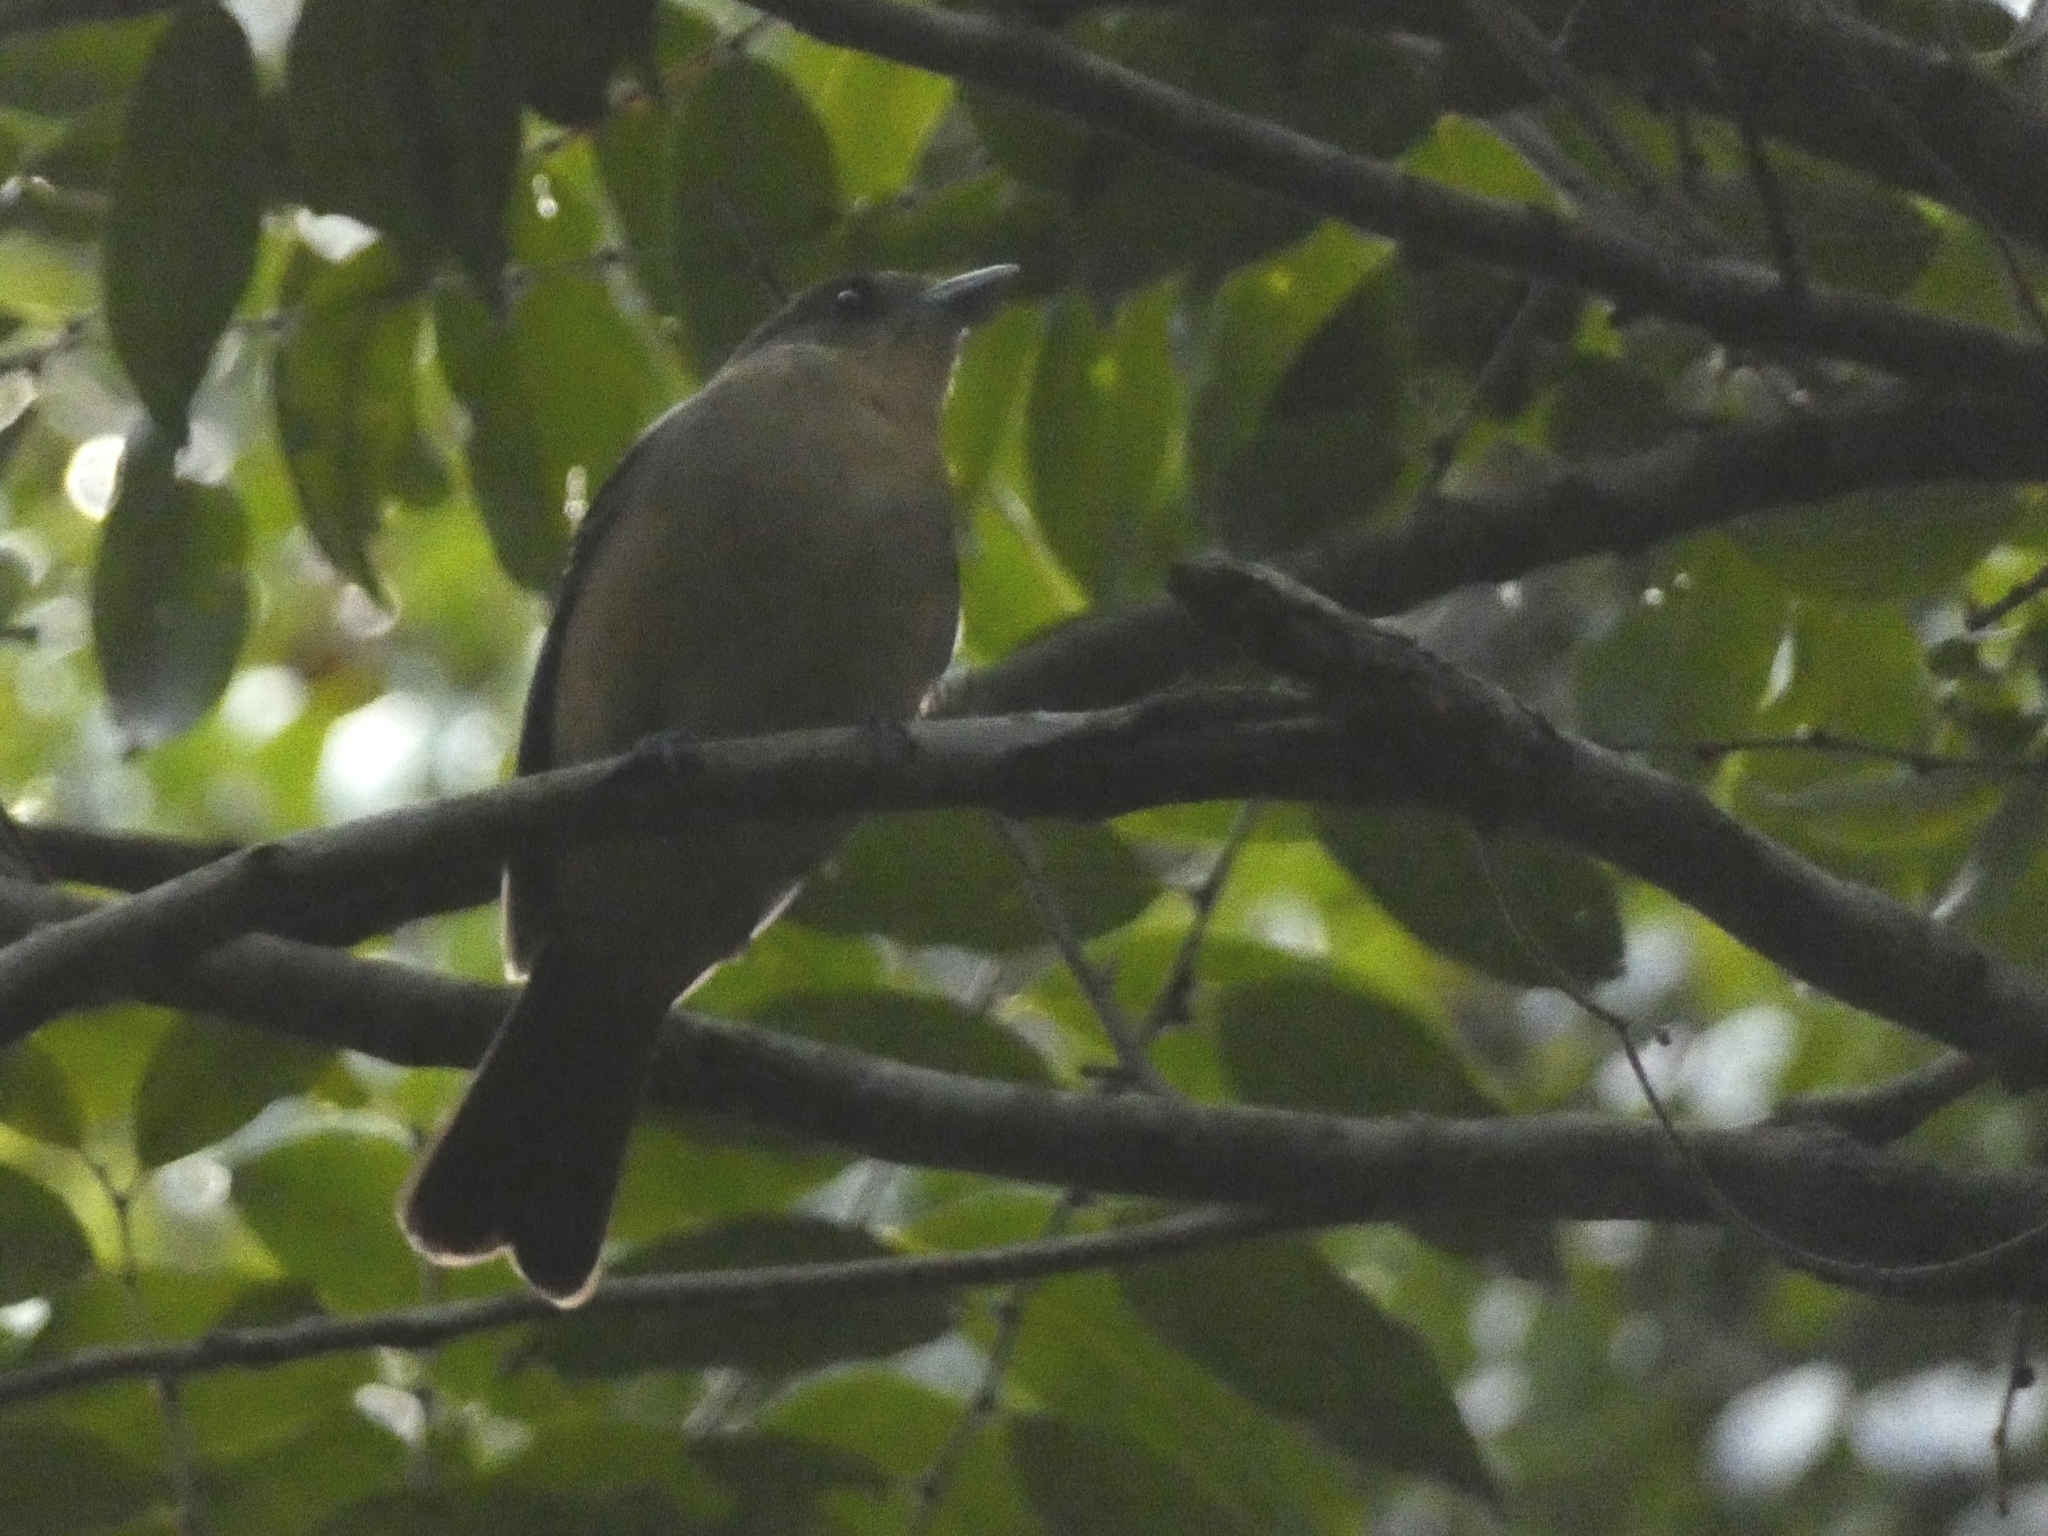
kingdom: Animalia
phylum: Chordata
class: Aves
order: Passeriformes
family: Thraupidae
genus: Trichothraupis
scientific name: Trichothraupis melanops
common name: Black-goggled tanager
